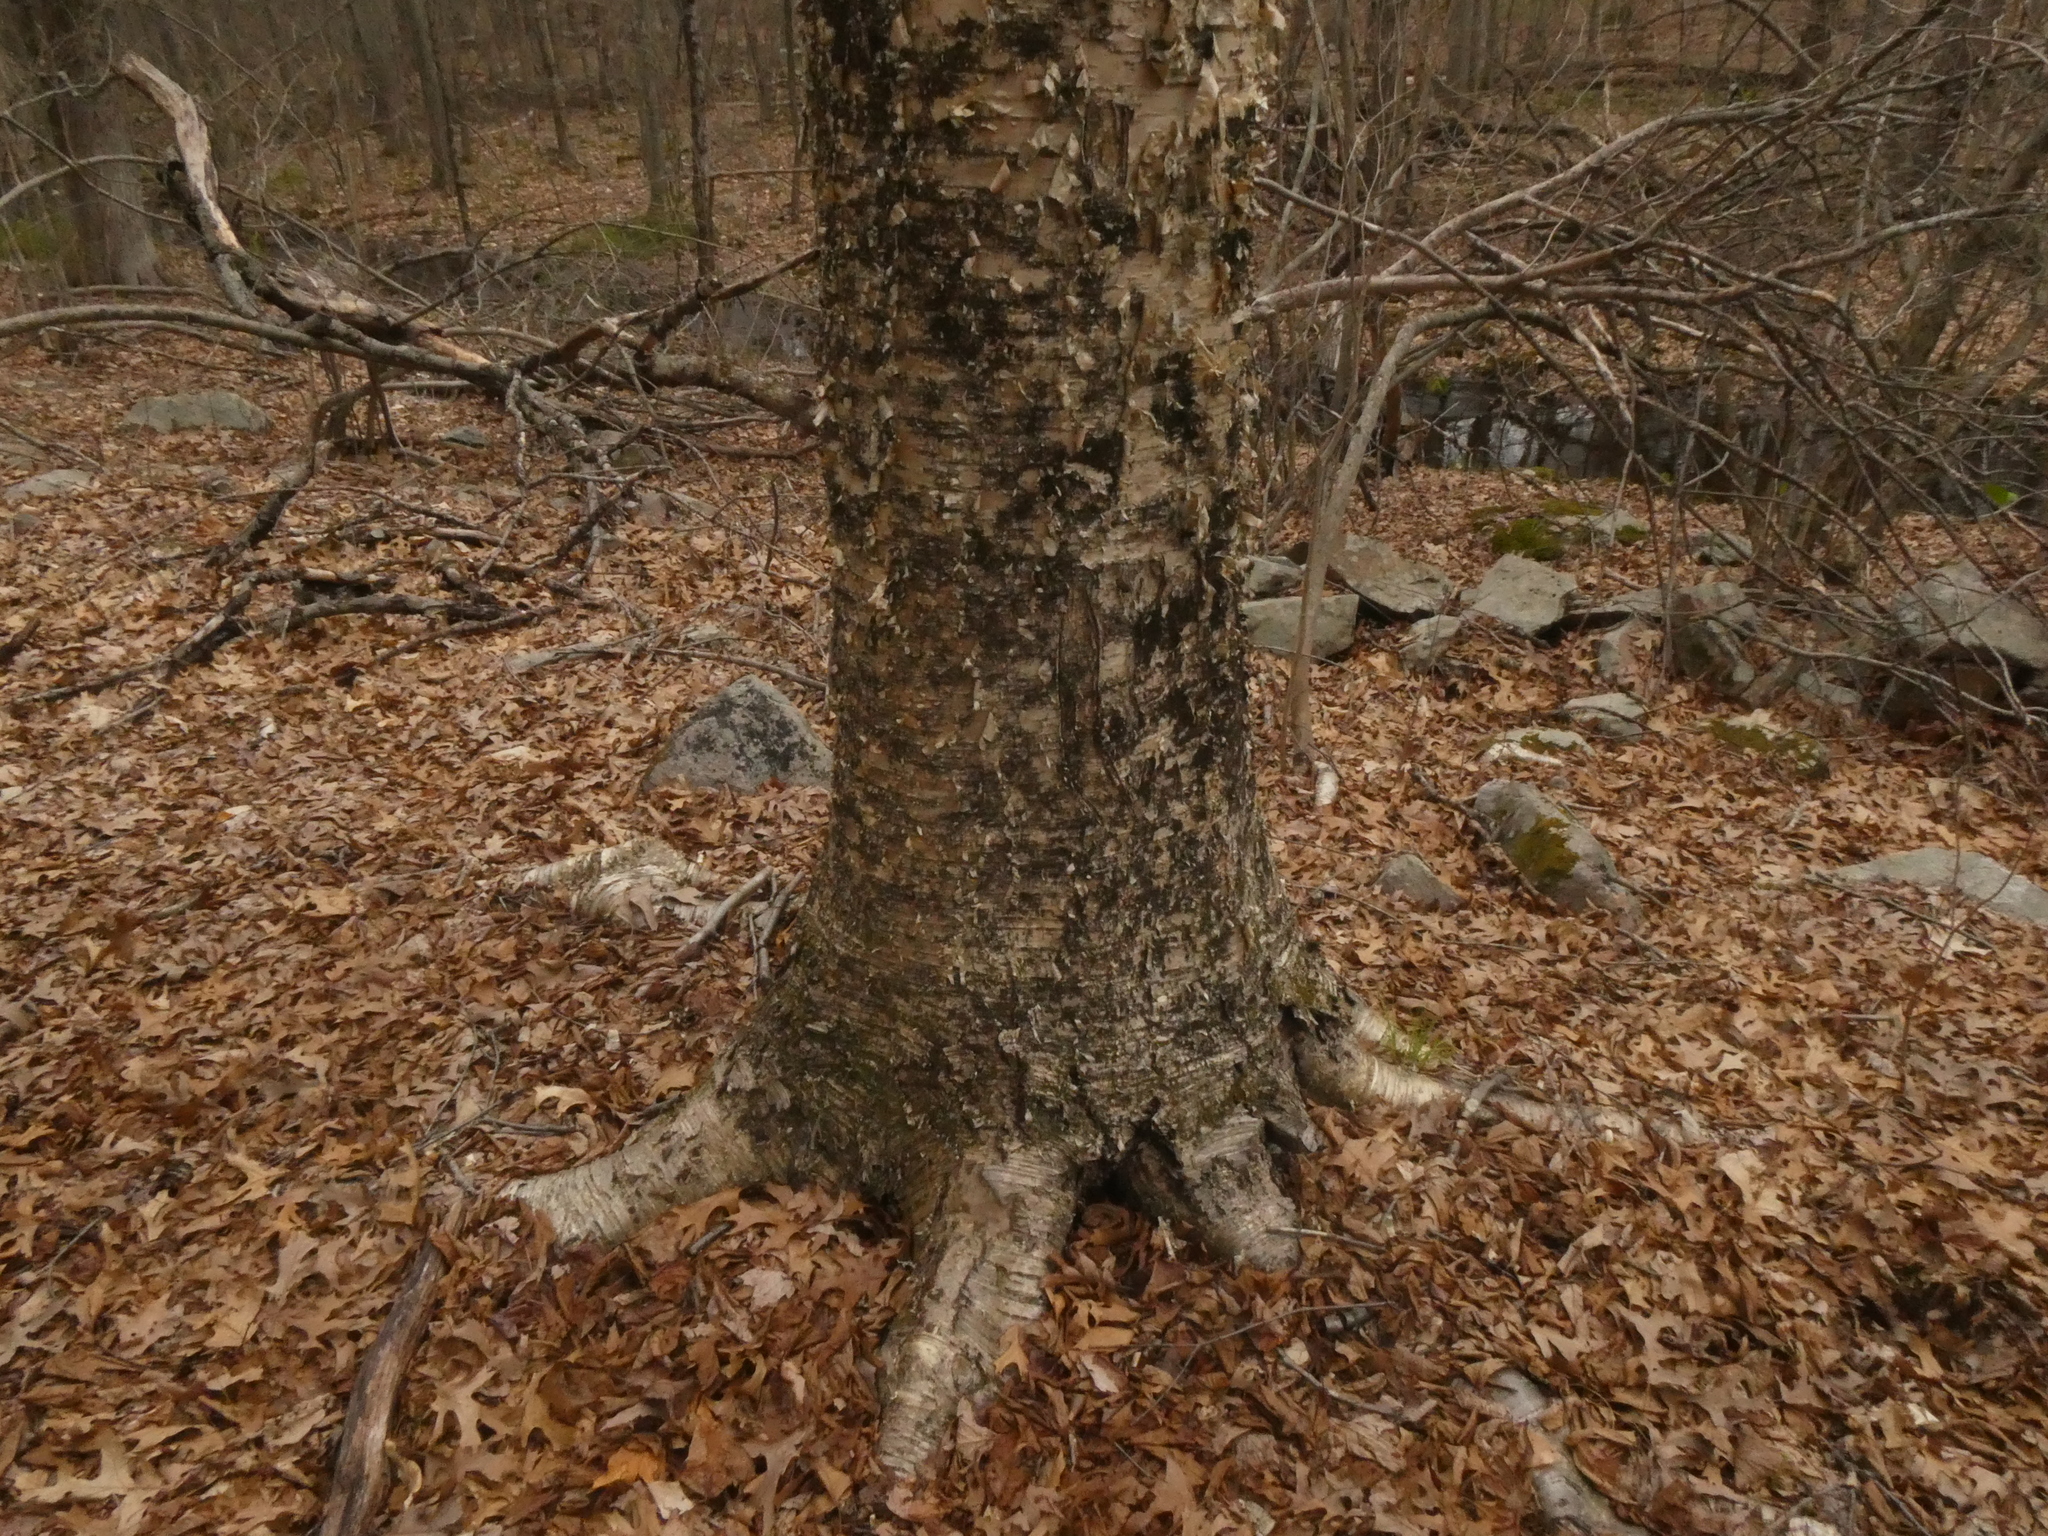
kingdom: Plantae
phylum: Tracheophyta
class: Magnoliopsida
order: Fagales
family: Betulaceae
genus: Betula
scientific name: Betula alleghaniensis
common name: Yellow birch
